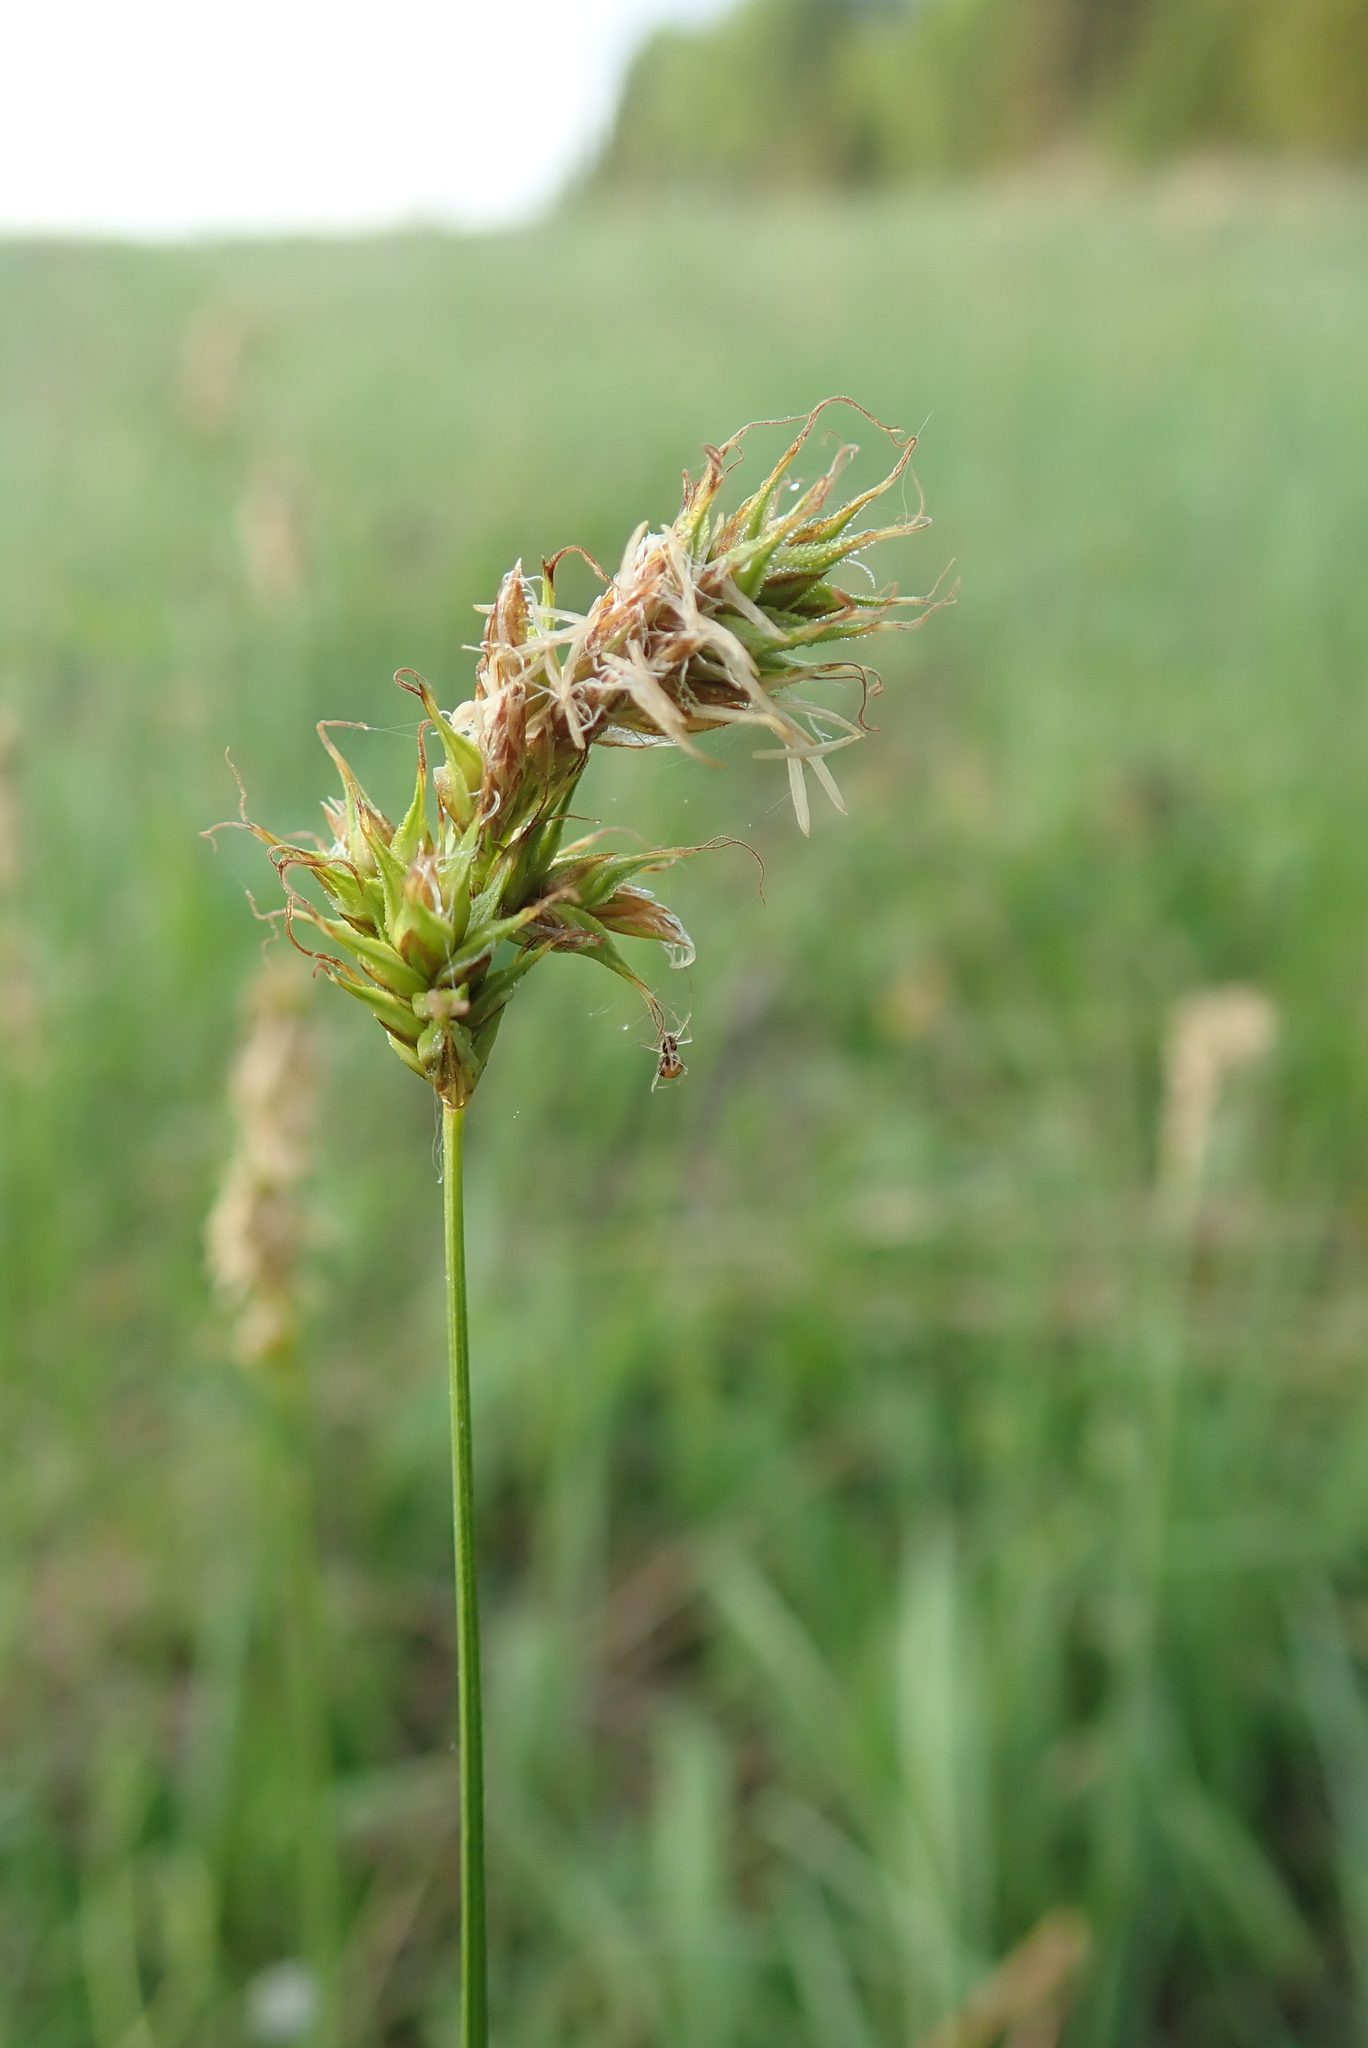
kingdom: Plantae
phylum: Tracheophyta
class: Liliopsida
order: Poales
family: Cyperaceae
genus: Carex
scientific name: Carex siccata
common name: Dry sedge
